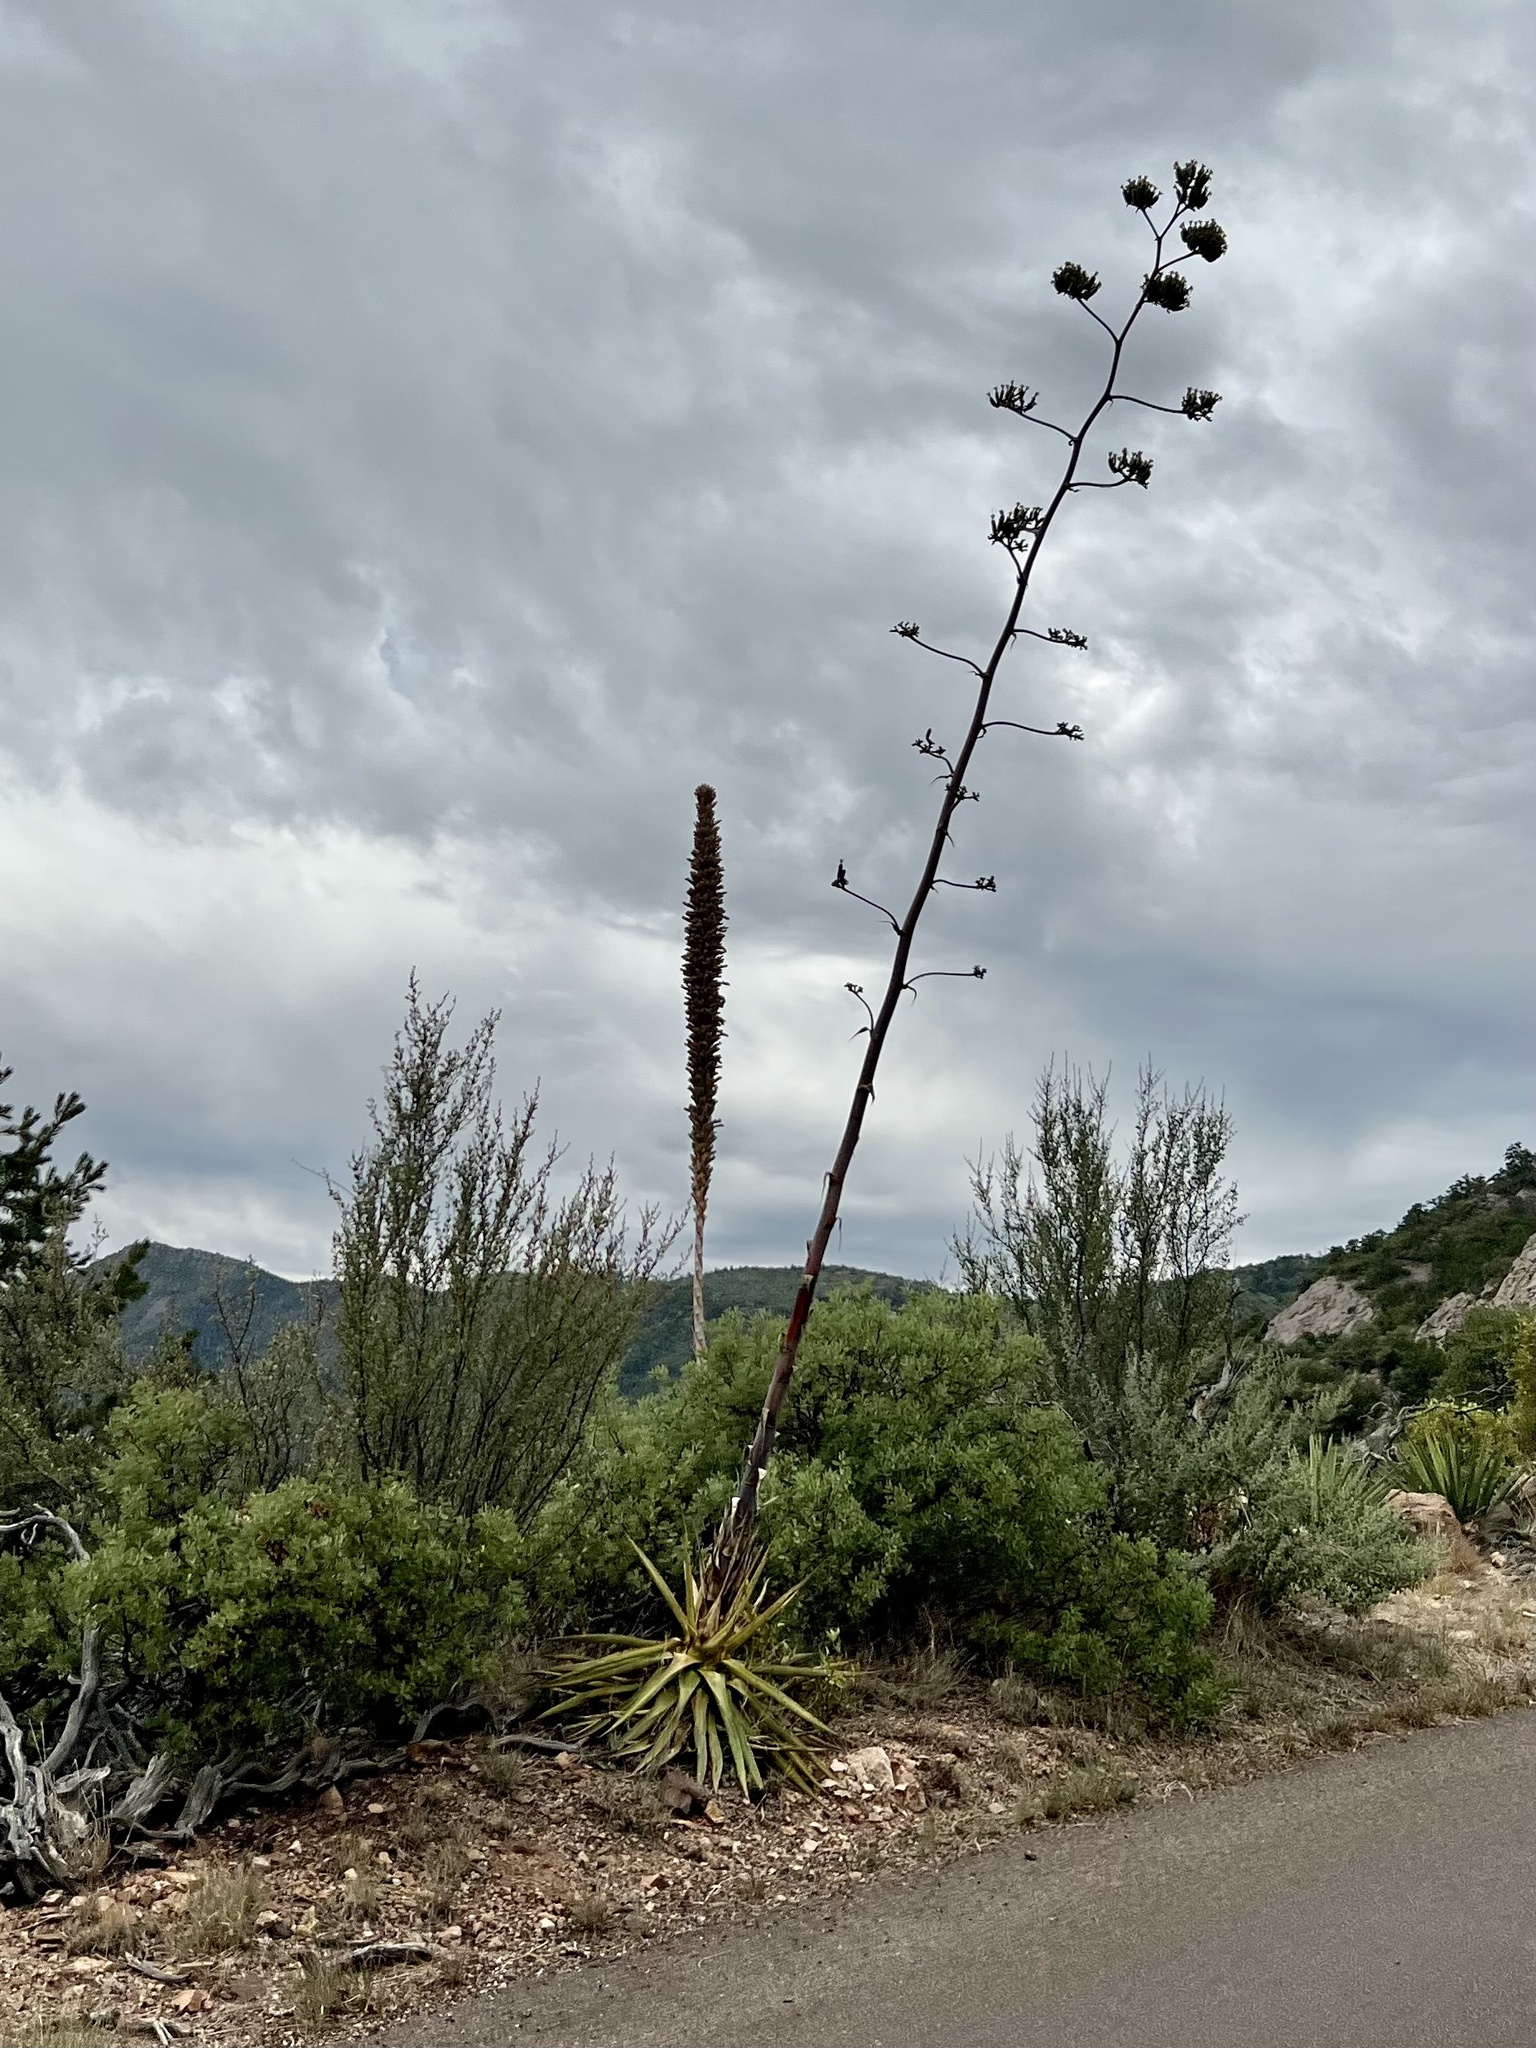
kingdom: Plantae
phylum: Tracheophyta
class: Liliopsida
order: Asparagales
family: Asparagaceae
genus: Agave
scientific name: Agave palmeri
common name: Palmer agave
